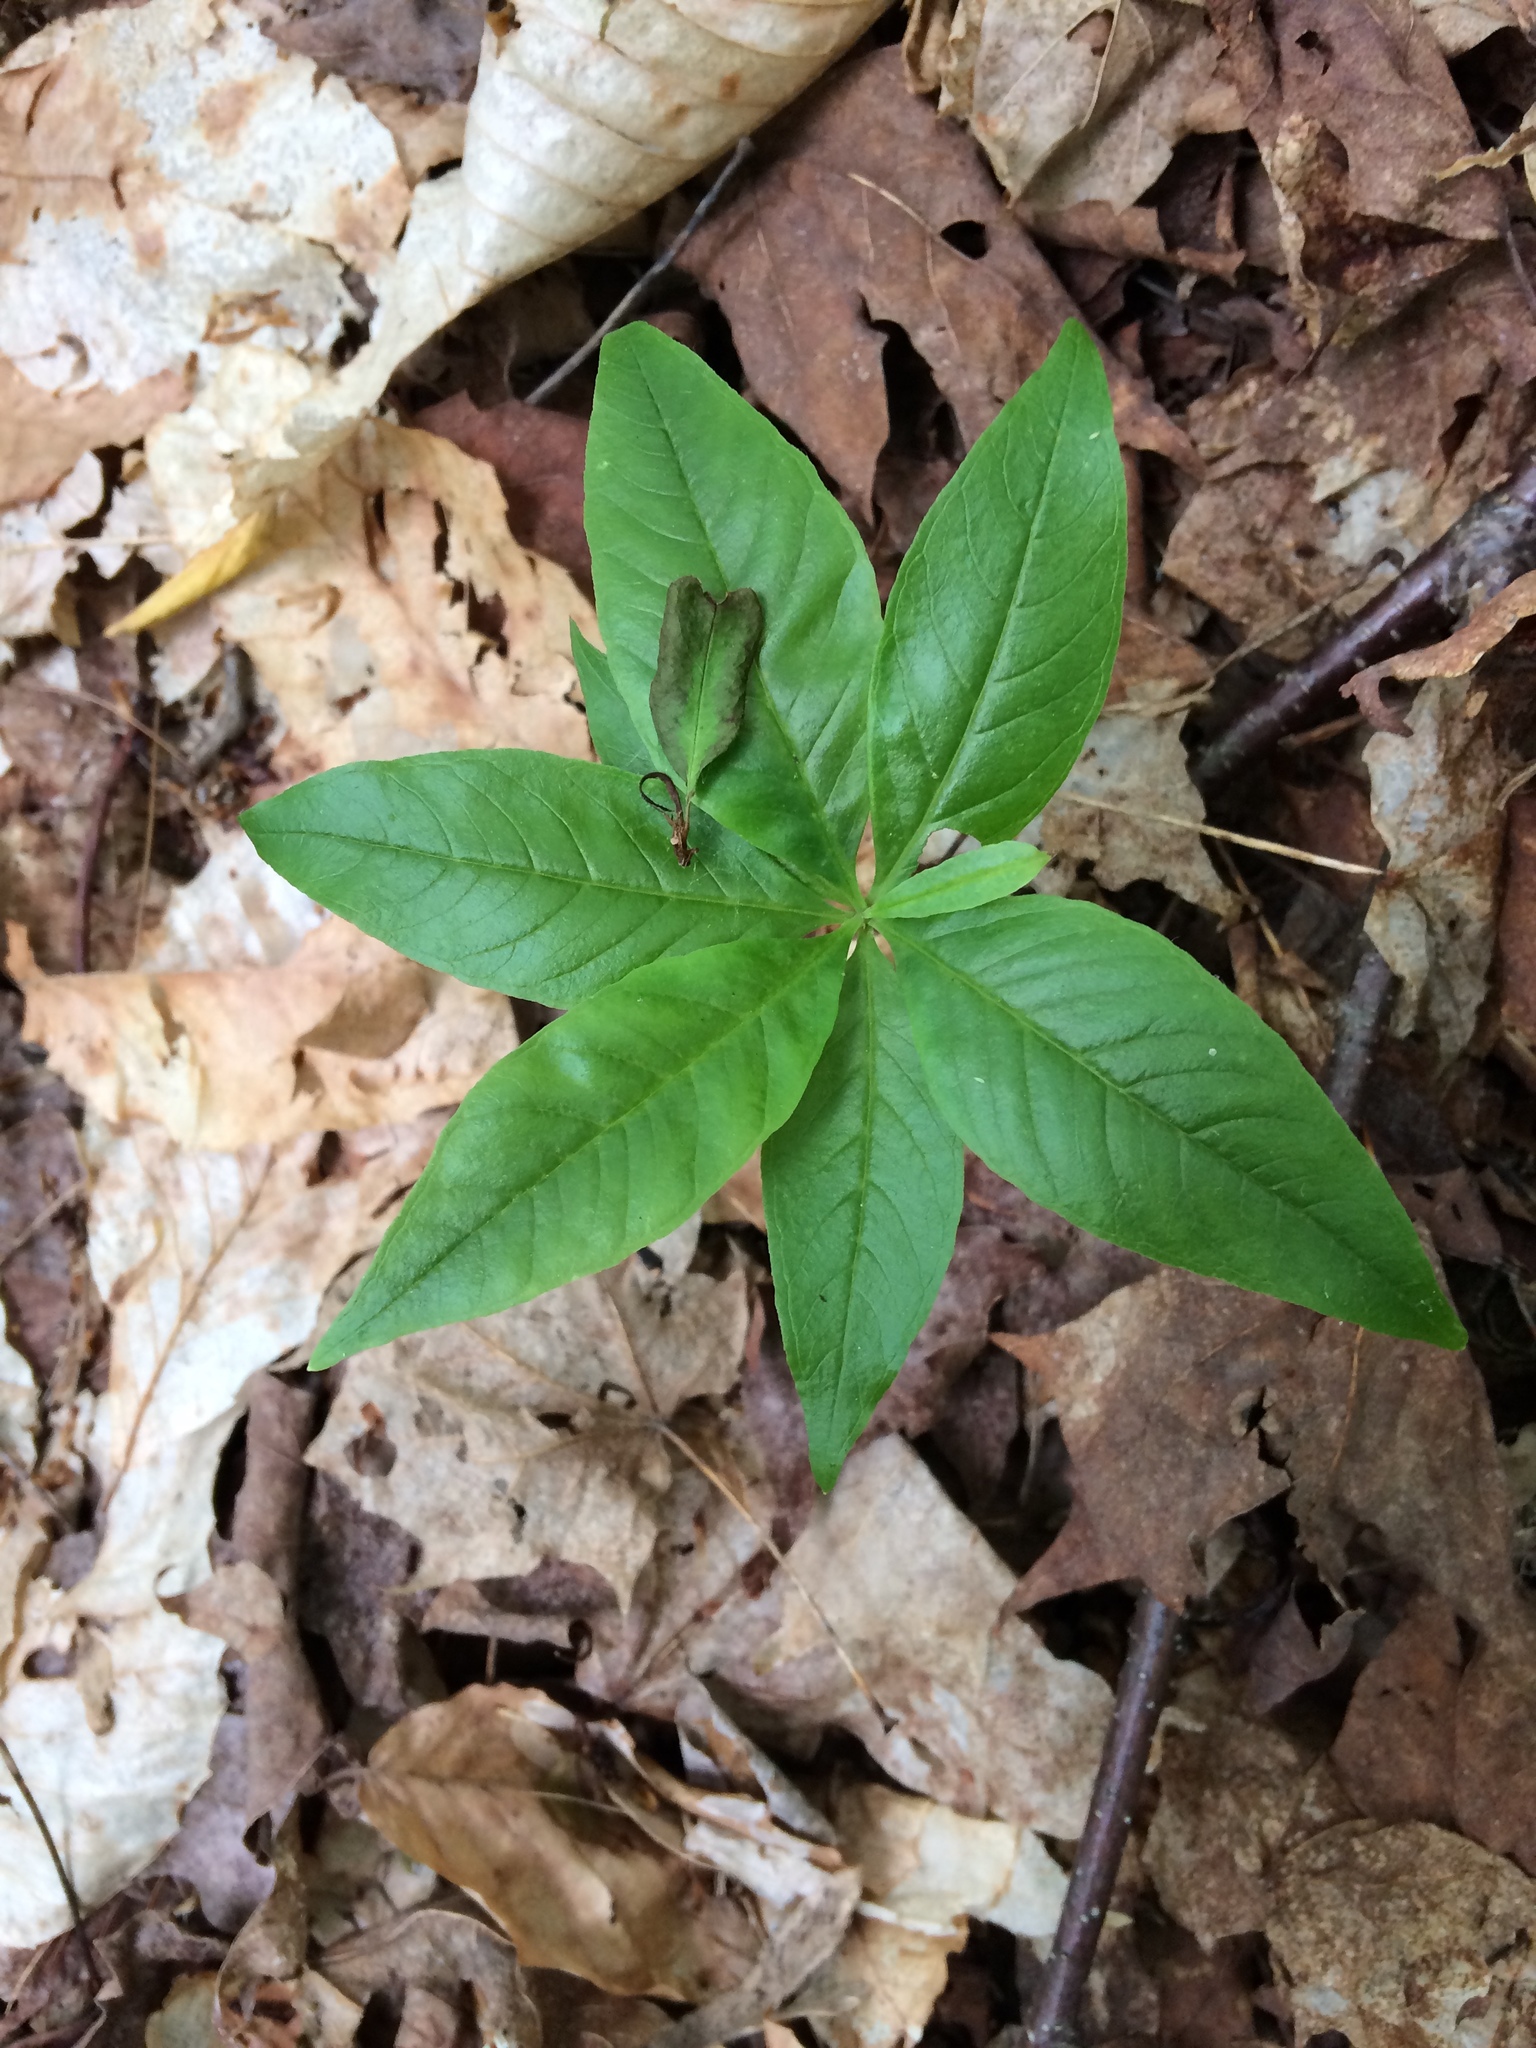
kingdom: Plantae
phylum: Tracheophyta
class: Magnoliopsida
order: Ericales
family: Primulaceae
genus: Lysimachia
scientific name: Lysimachia borealis
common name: American starflower
